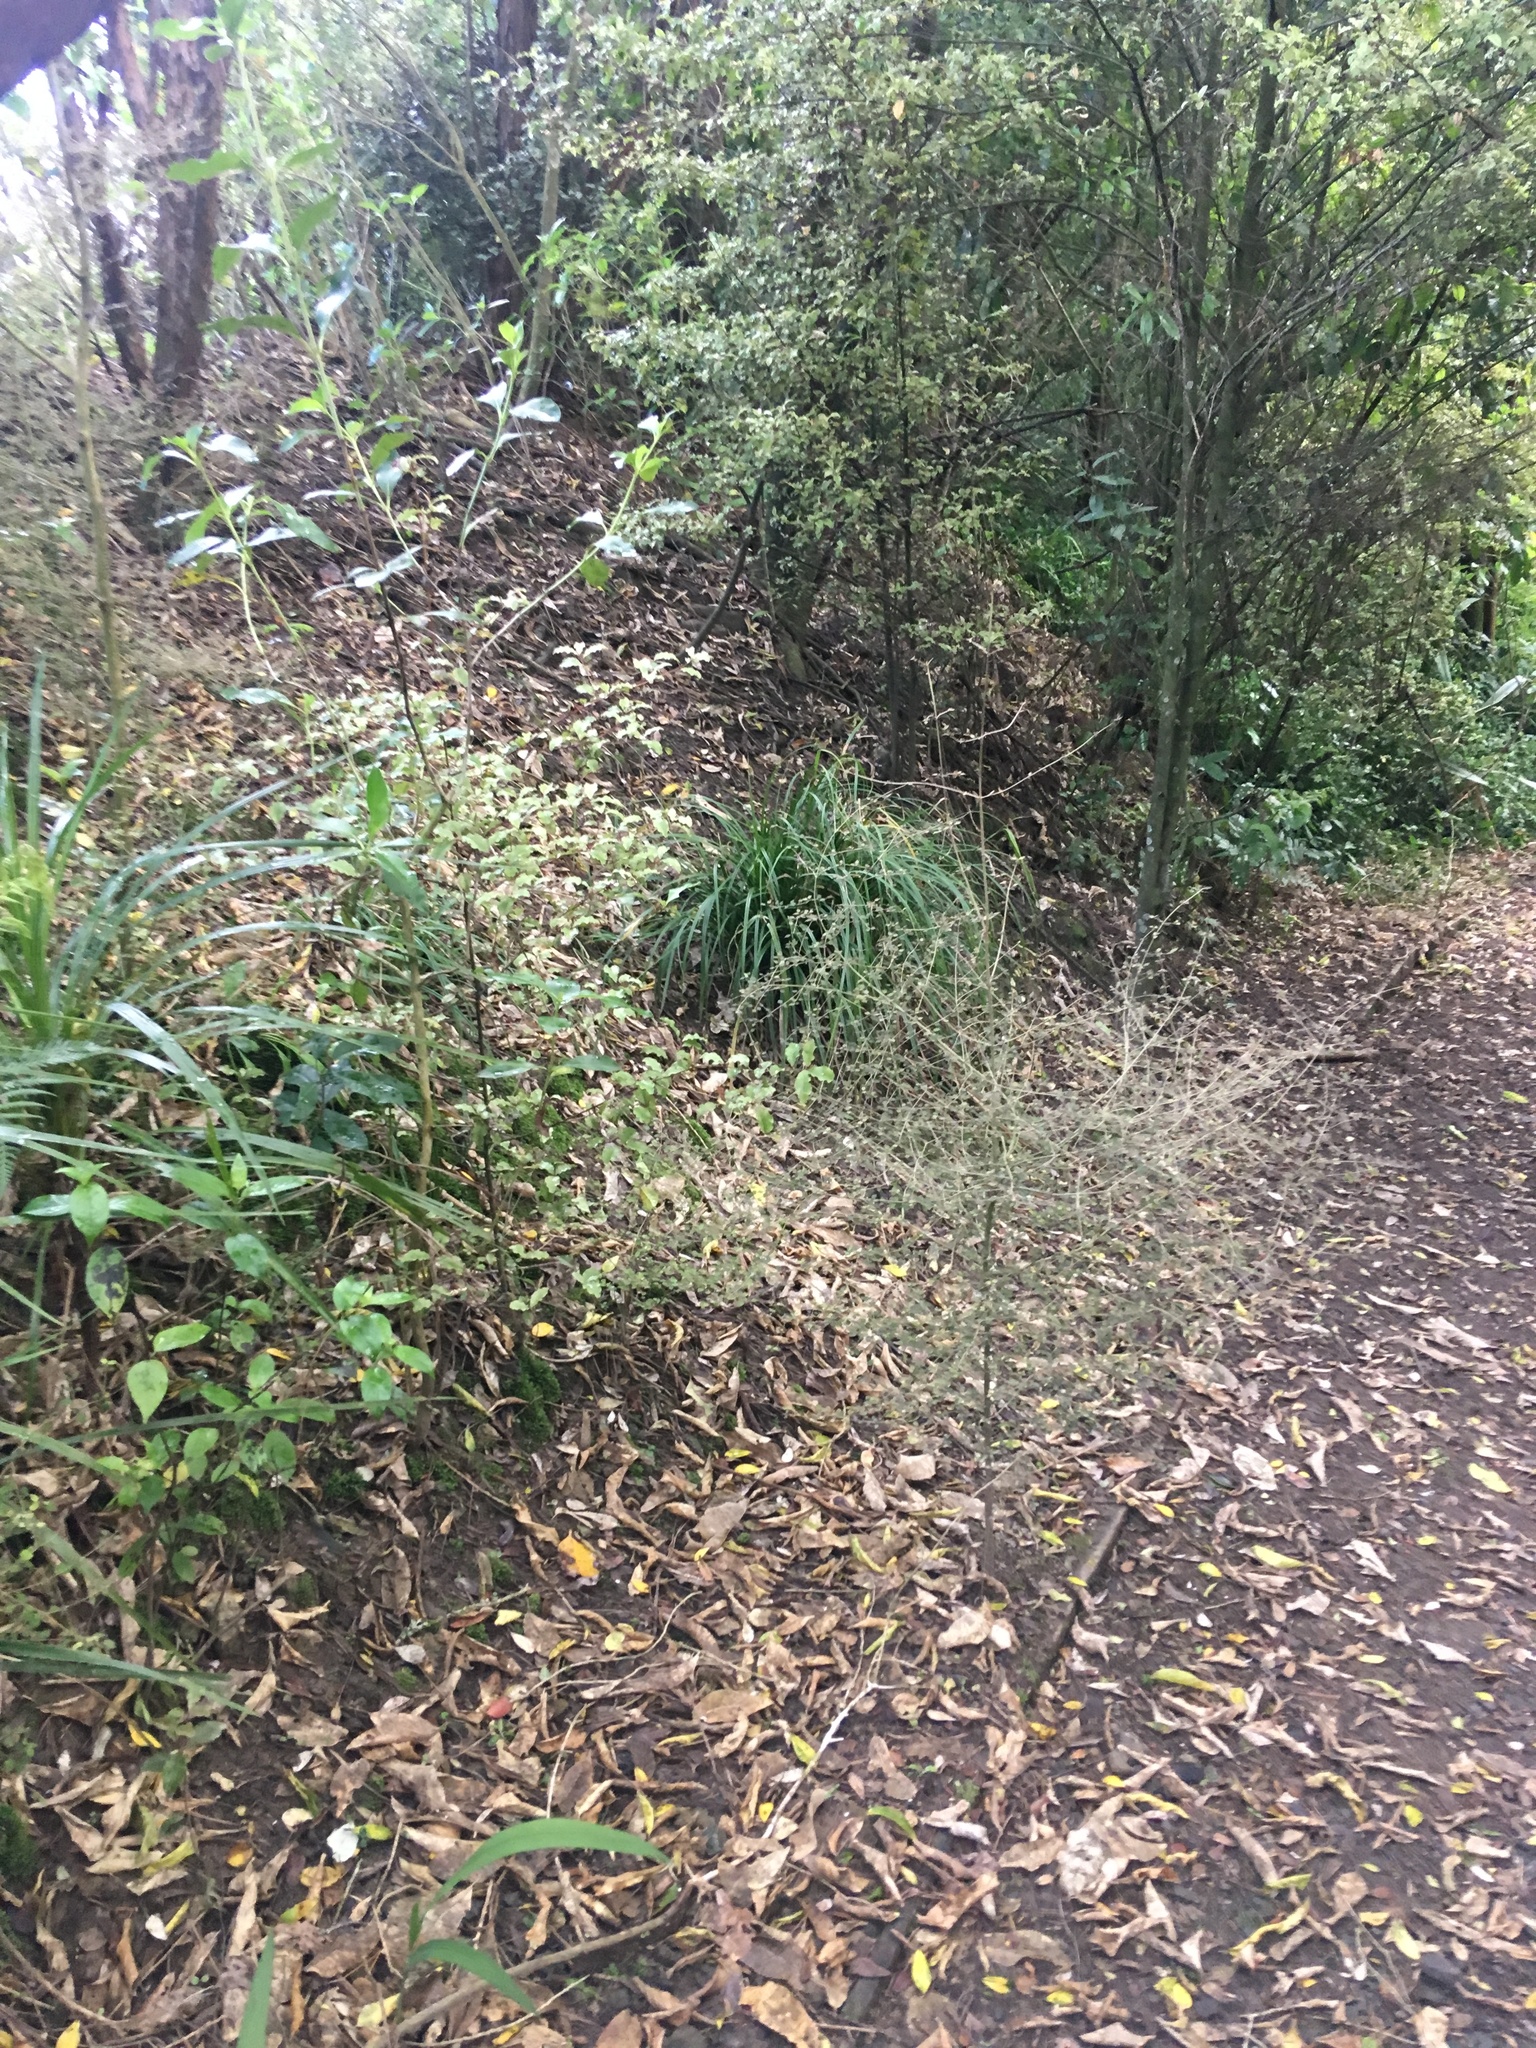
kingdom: Plantae
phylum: Tracheophyta
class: Magnoliopsida
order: Gentianales
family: Rubiaceae
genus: Coprosma
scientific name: Coprosma areolata
